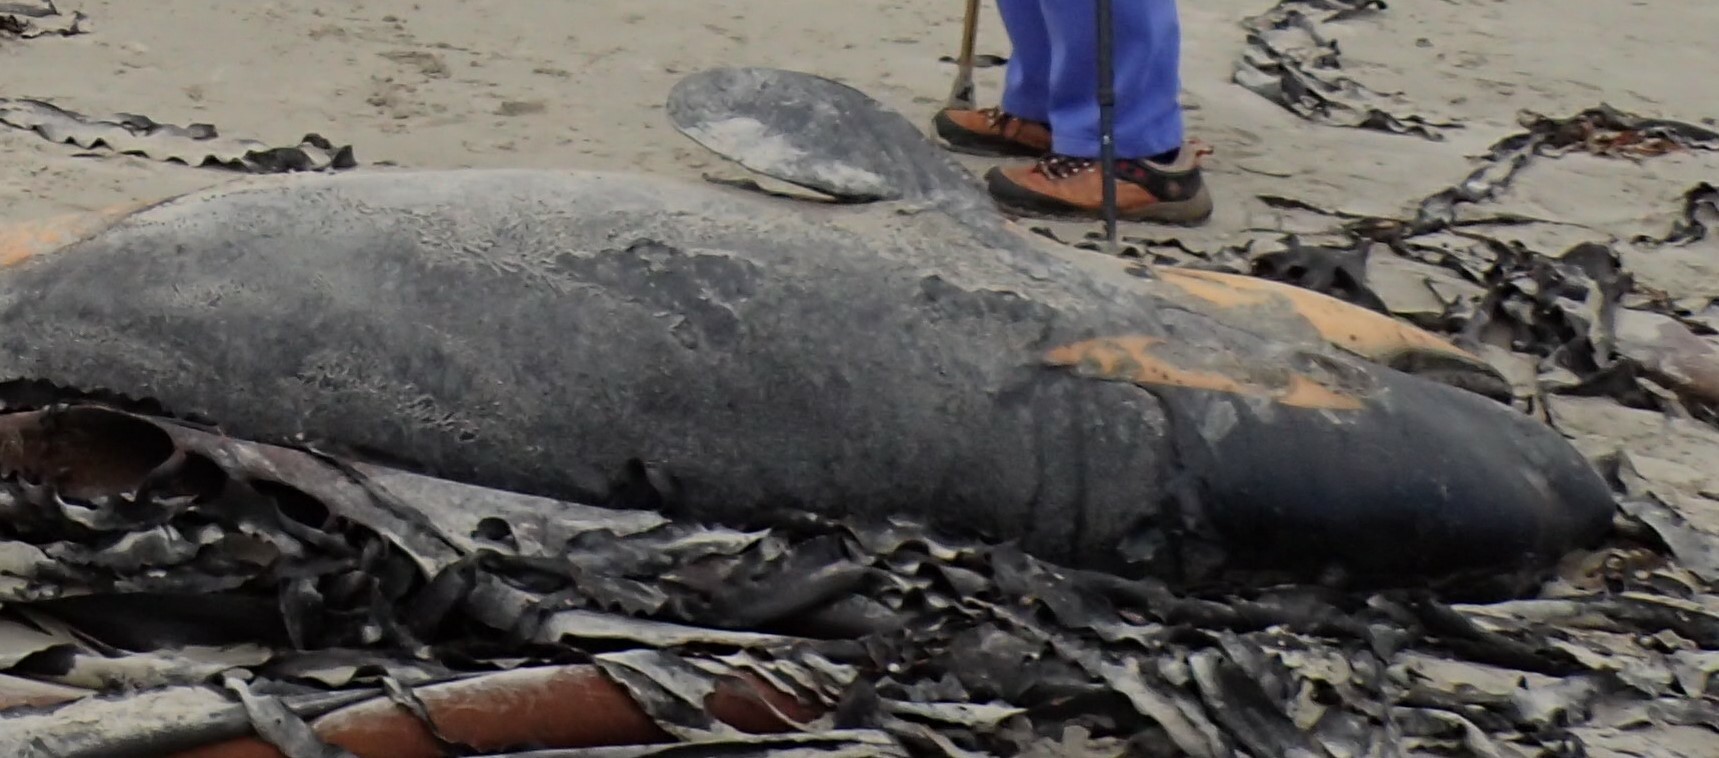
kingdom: Animalia
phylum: Chordata
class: Mammalia
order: Cetacea
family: Delphinidae
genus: Orcinus
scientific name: Orcinus orca
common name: Killer whale
